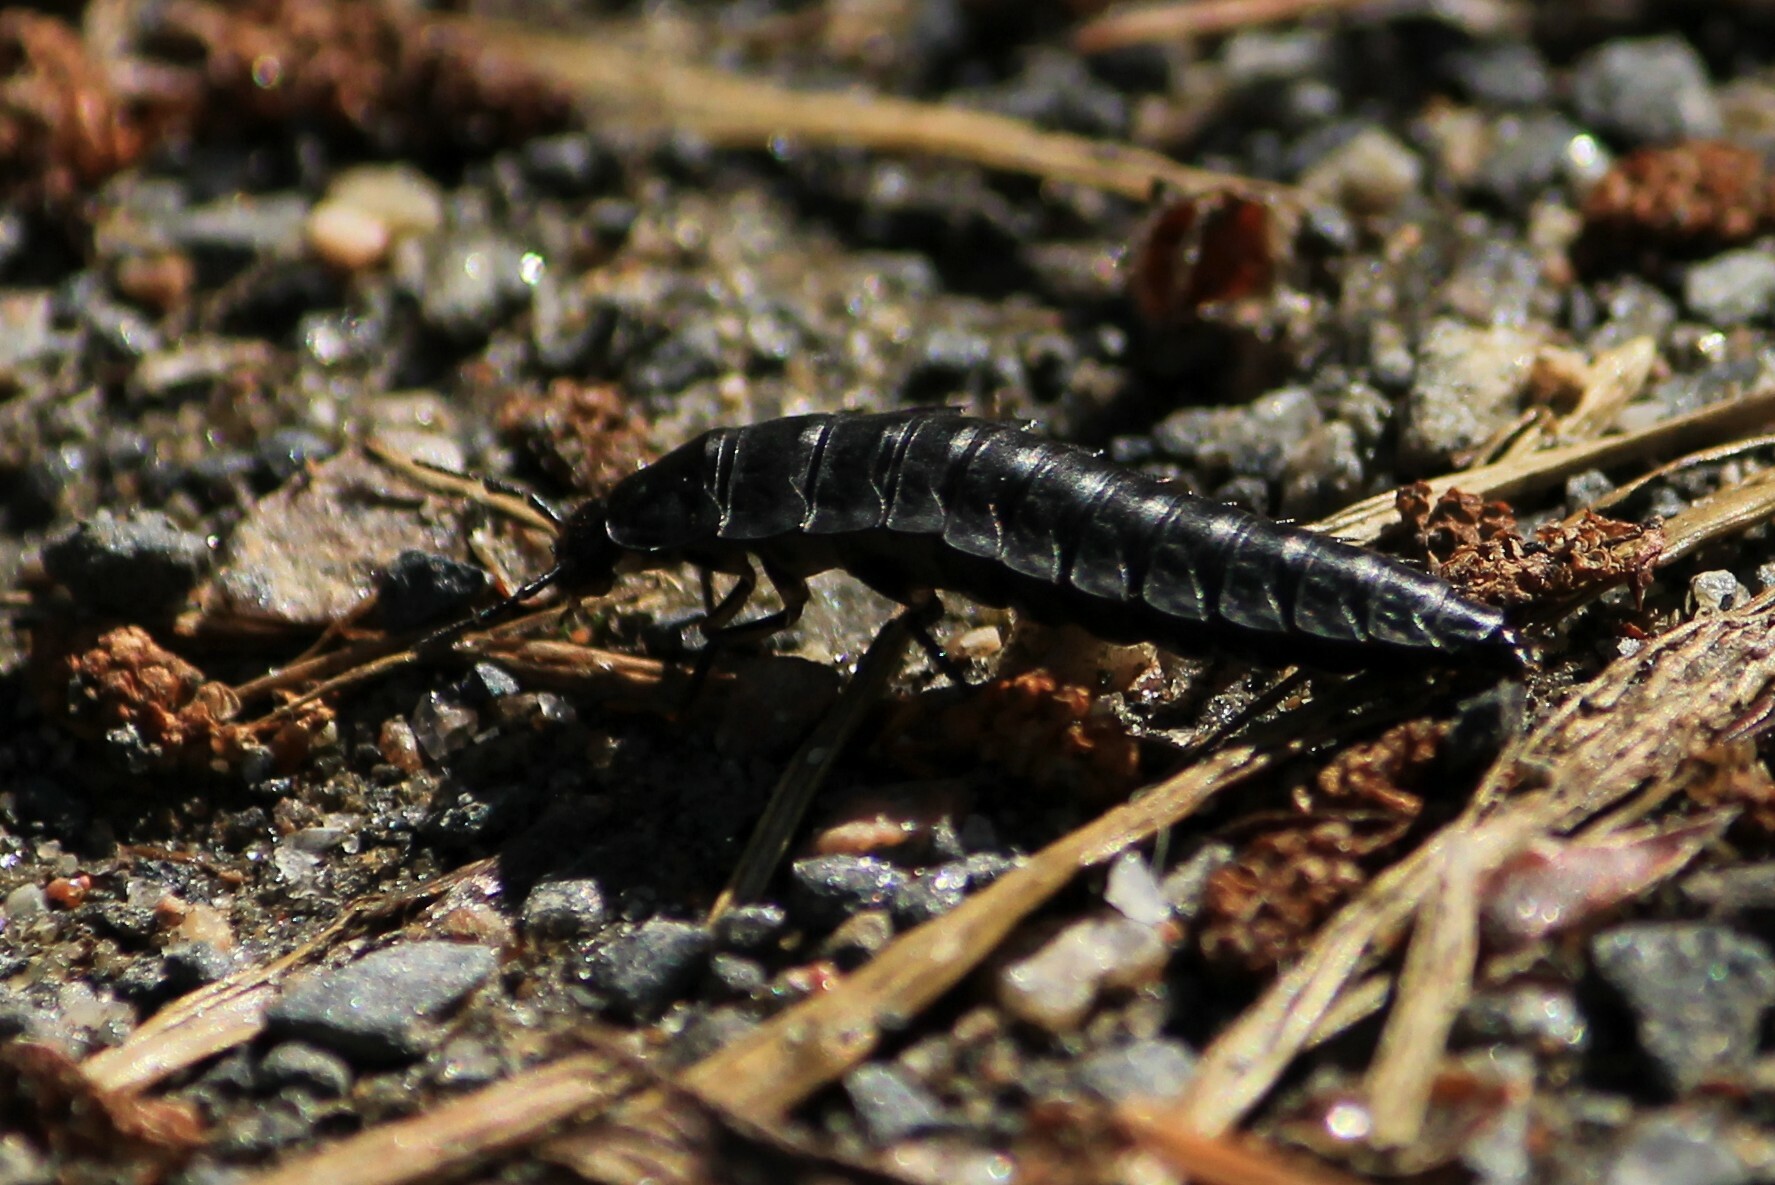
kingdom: Animalia
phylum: Arthropoda
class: Insecta
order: Coleoptera
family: Staphylinidae
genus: Silpha
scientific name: Silpha carinata
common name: Silphid beetle
